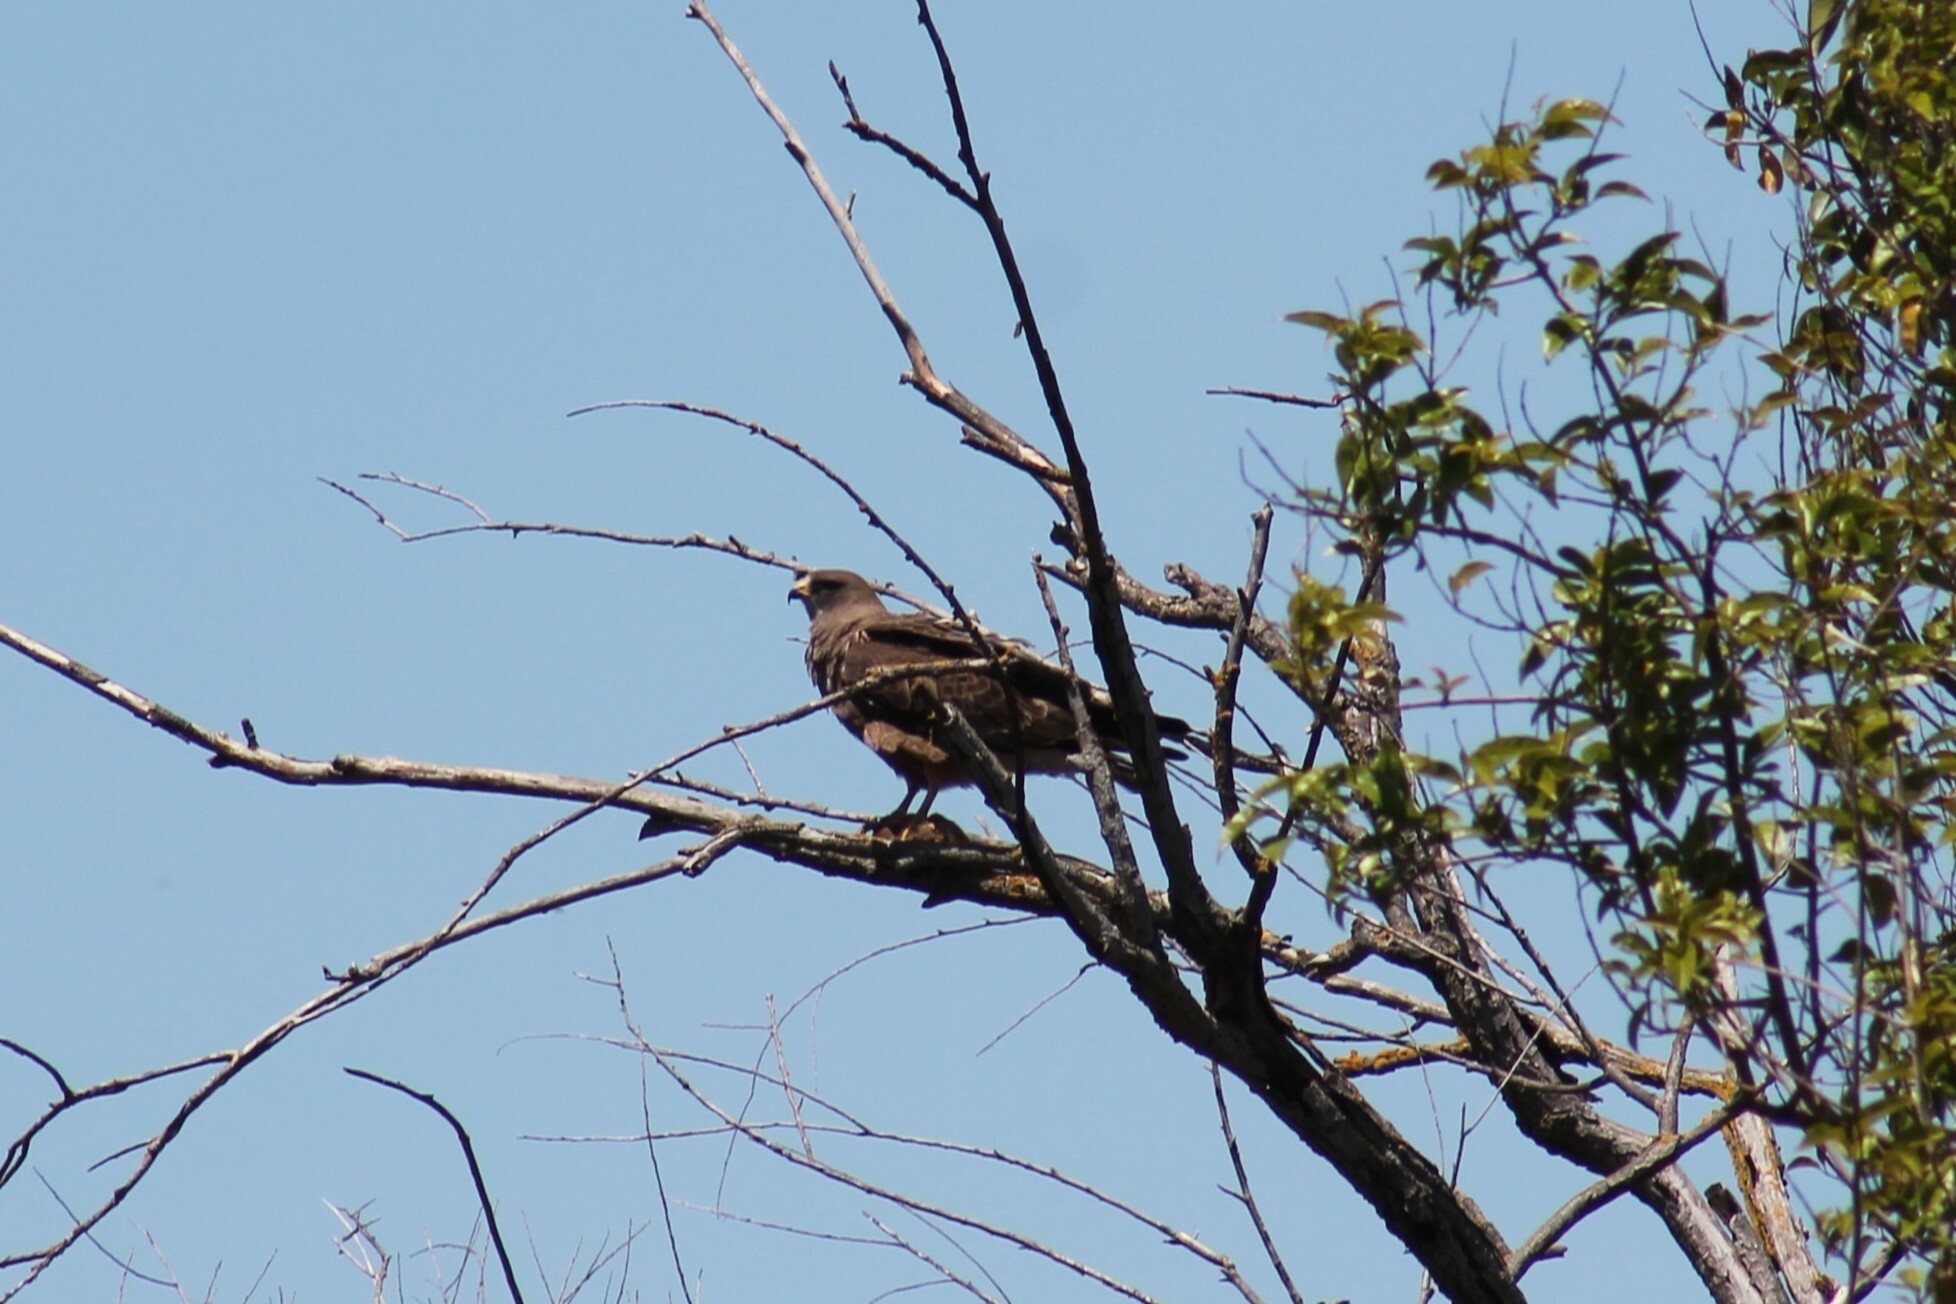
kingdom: Animalia
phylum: Chordata
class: Aves
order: Accipitriformes
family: Accipitridae
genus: Buteo
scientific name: Buteo swainsoni
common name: Swainson's hawk
